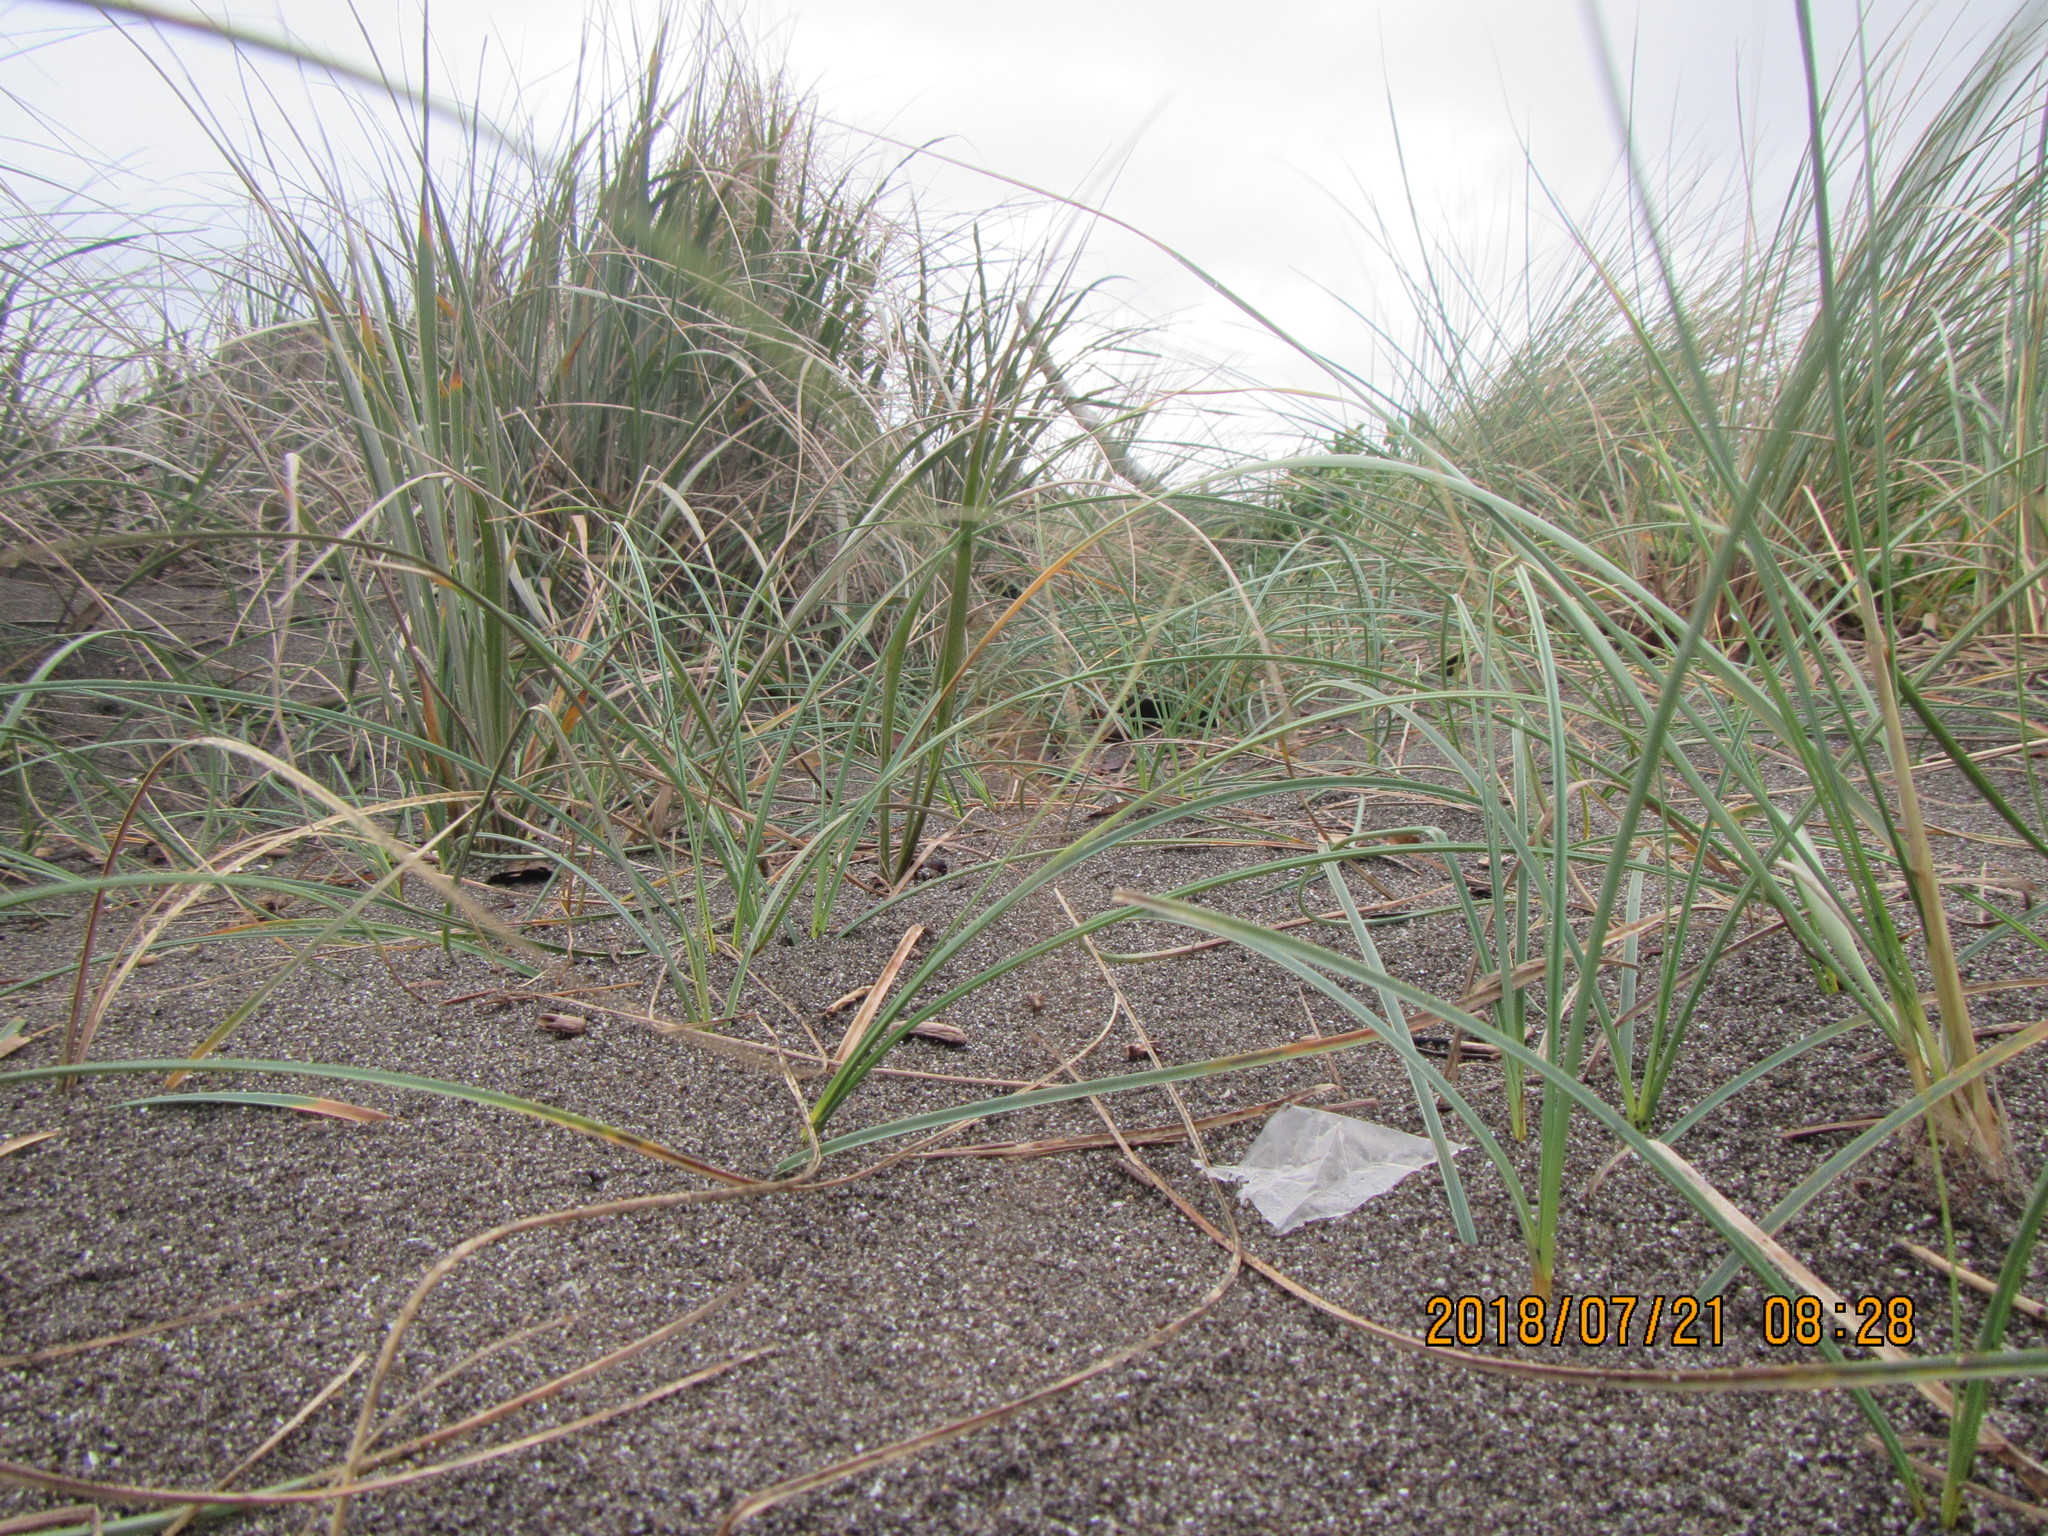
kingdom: Plantae
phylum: Tracheophyta
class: Liliopsida
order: Poales
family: Cyperaceae
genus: Carex
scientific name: Carex pumila
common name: Dwarf sedge
